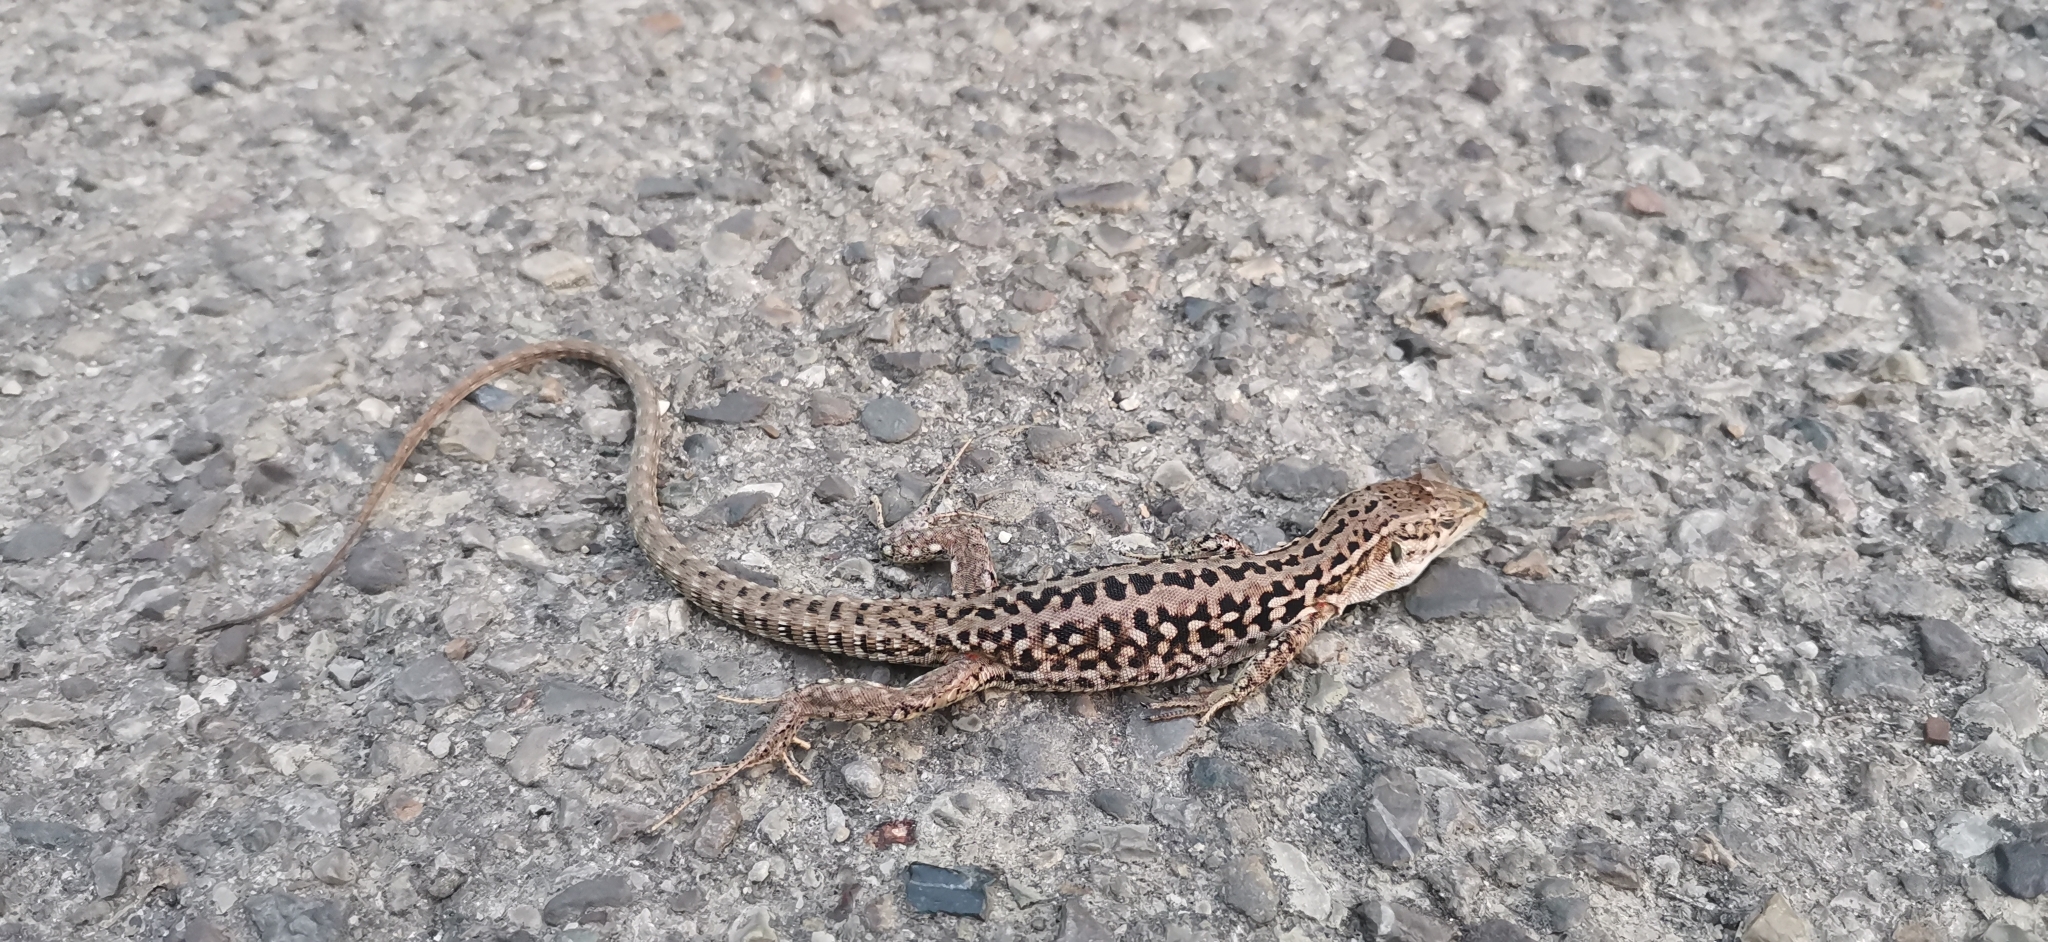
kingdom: Animalia
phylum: Chordata
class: Squamata
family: Lacertidae
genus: Podarcis
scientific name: Podarcis siculus
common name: Italian wall lizard
